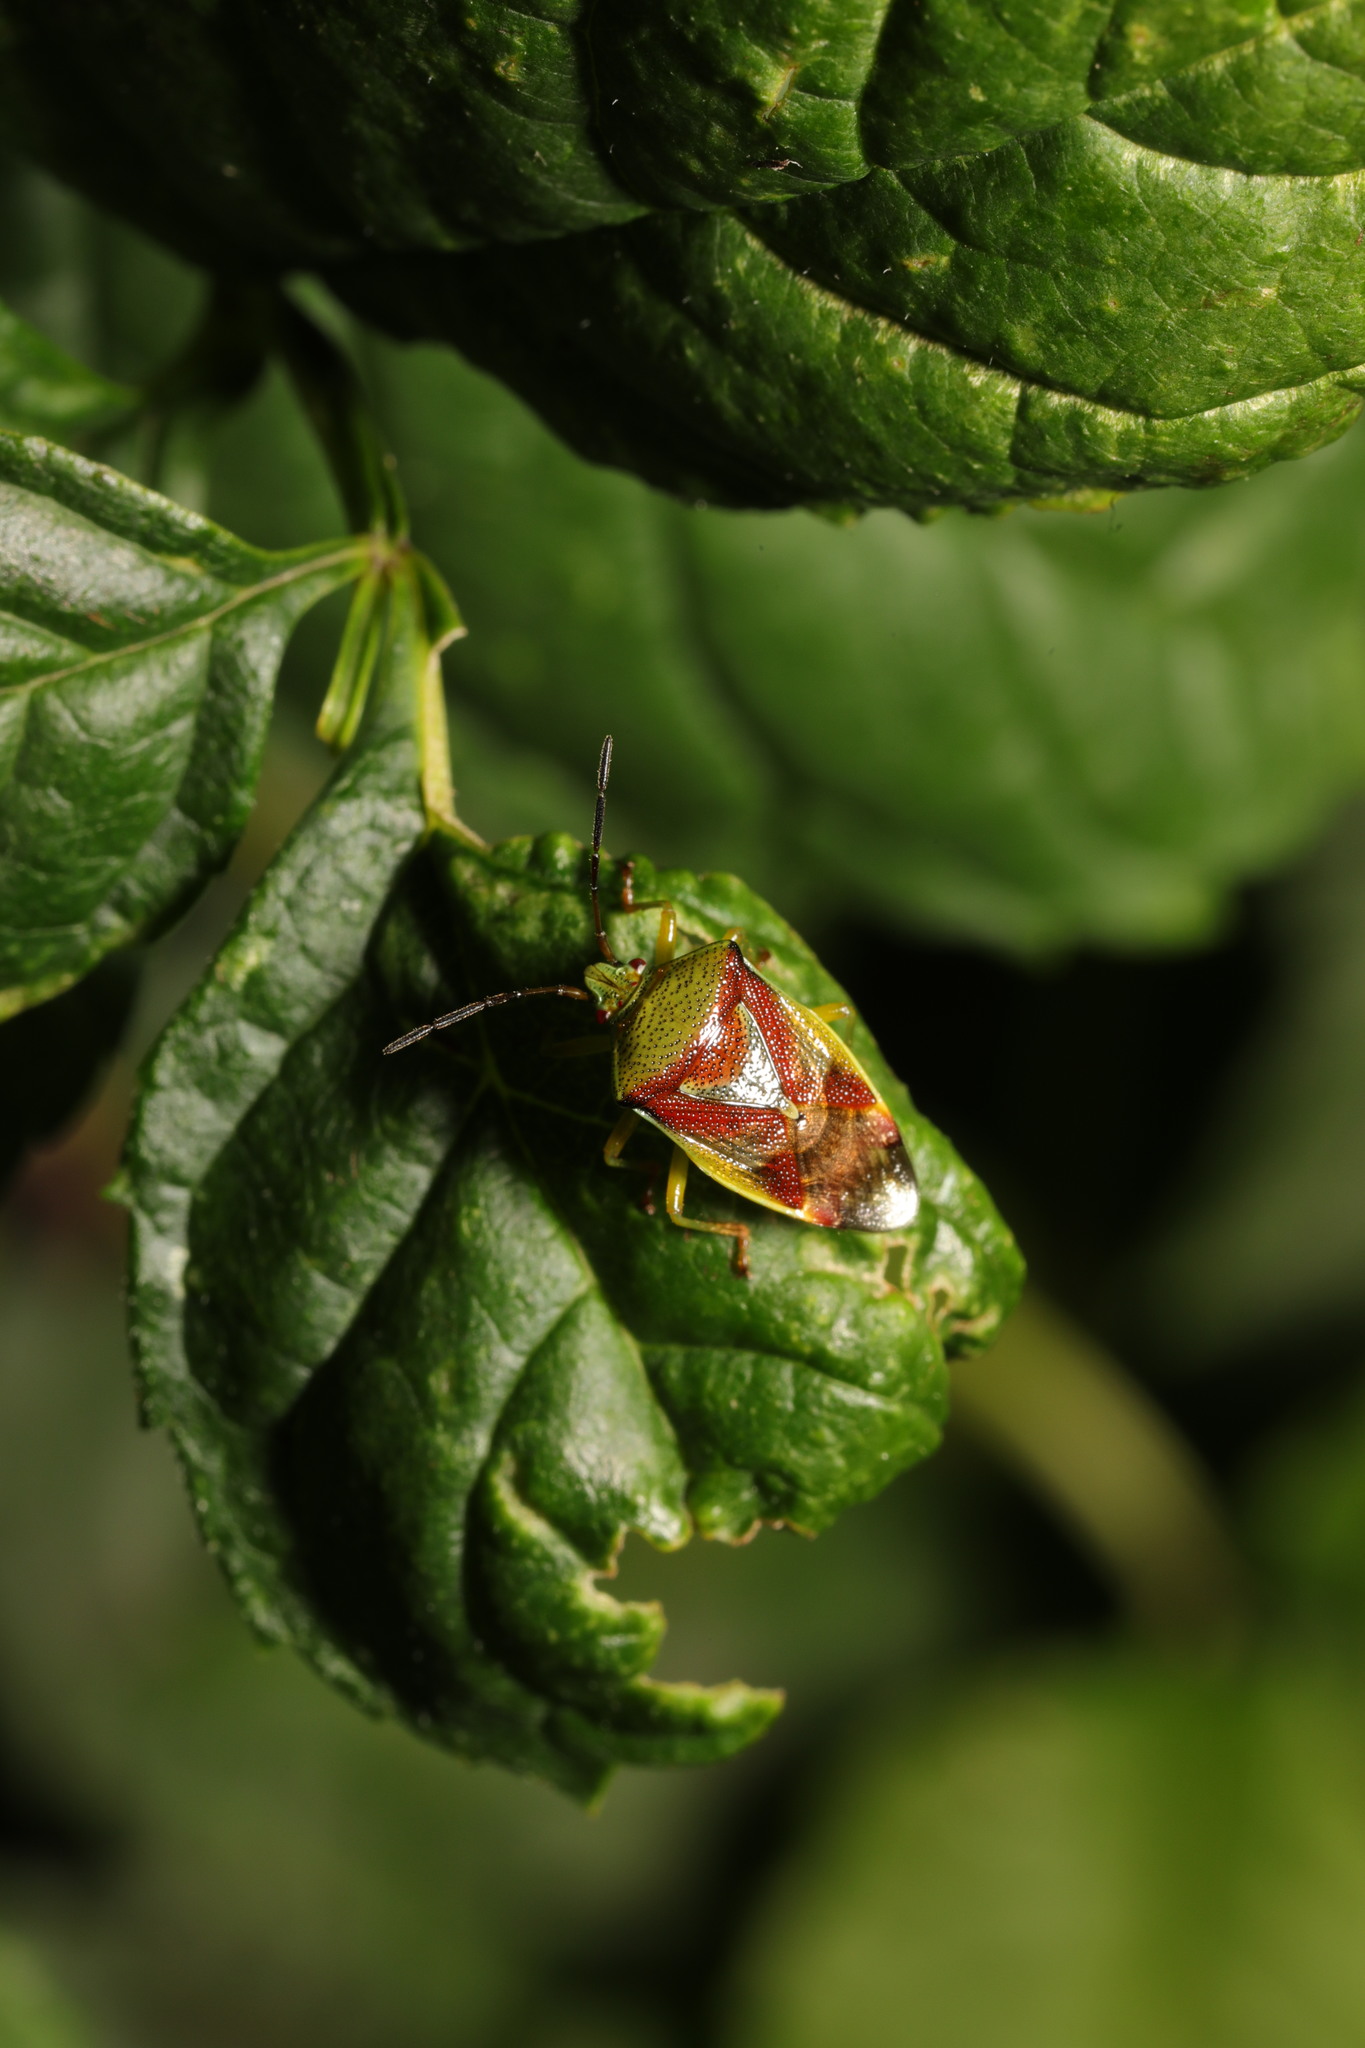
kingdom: Animalia
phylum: Arthropoda
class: Insecta
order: Hemiptera
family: Acanthosomatidae
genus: Elasmostethus
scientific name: Elasmostethus interstinctus
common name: Birch shieldbug
